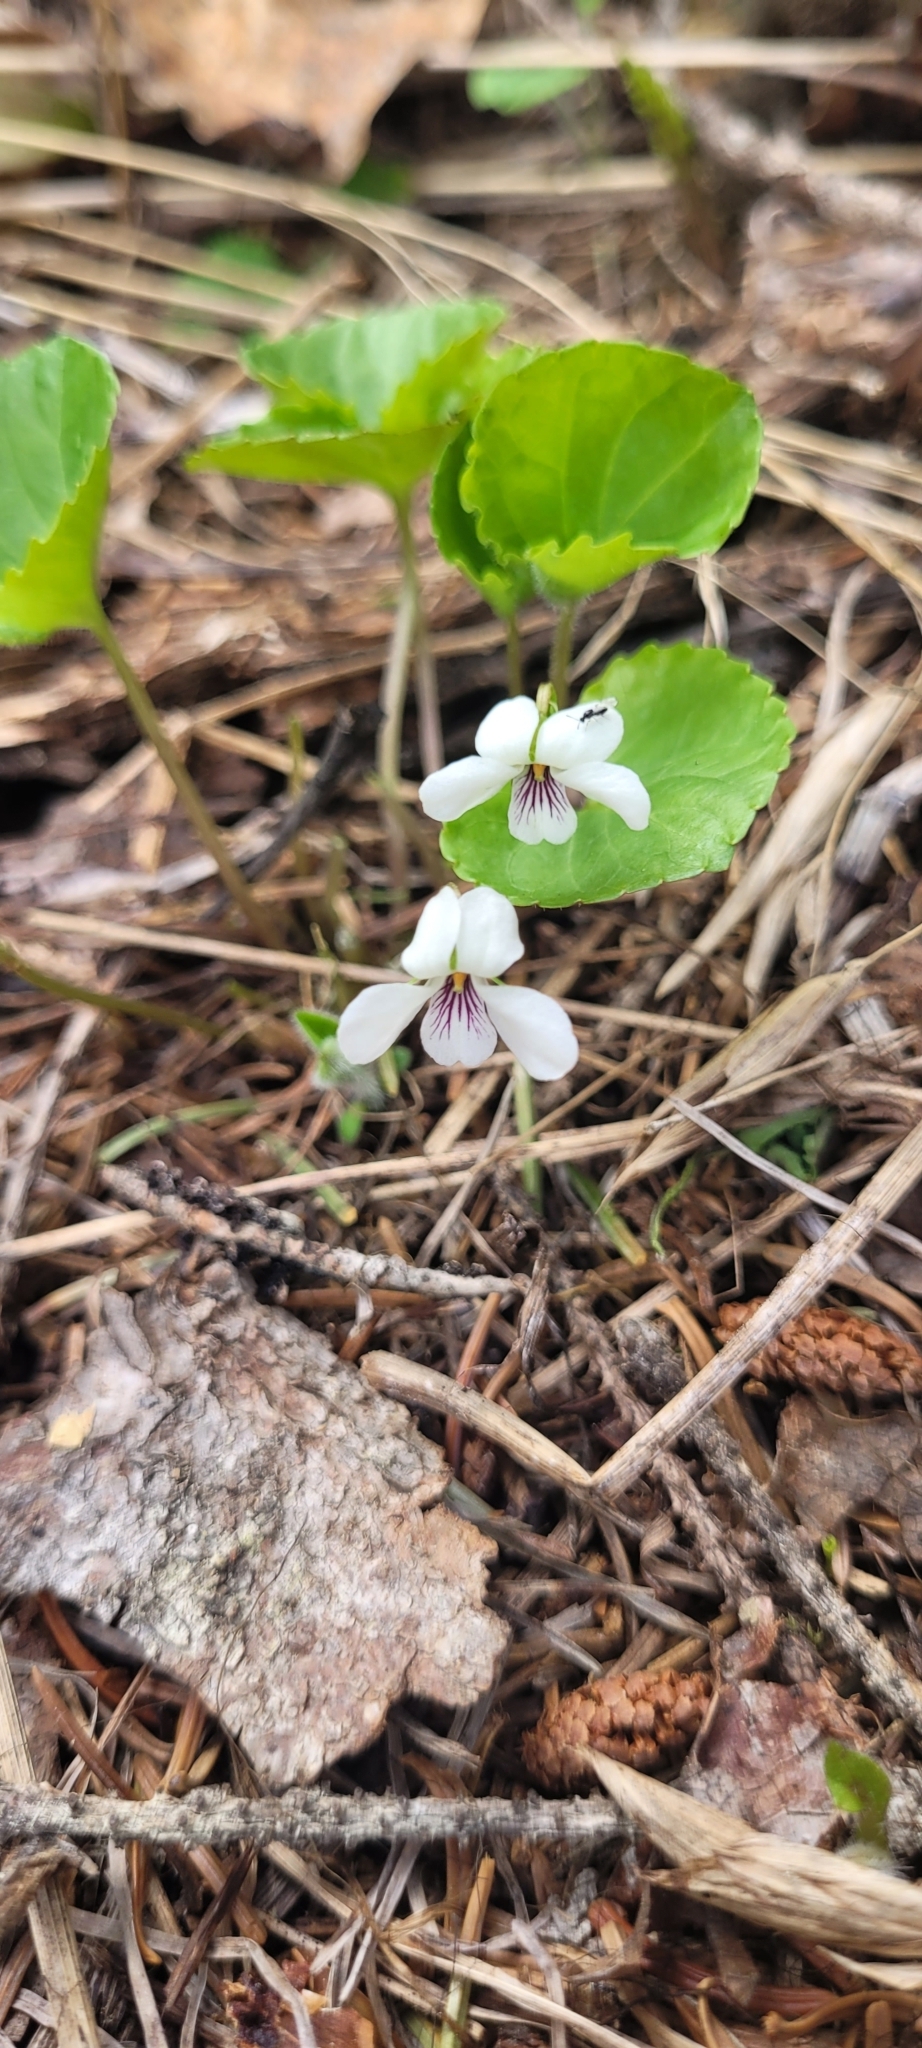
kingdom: Plantae
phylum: Tracheophyta
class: Magnoliopsida
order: Malpighiales
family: Violaceae
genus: Viola
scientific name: Viola renifolia
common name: Kidney-leaf violet
